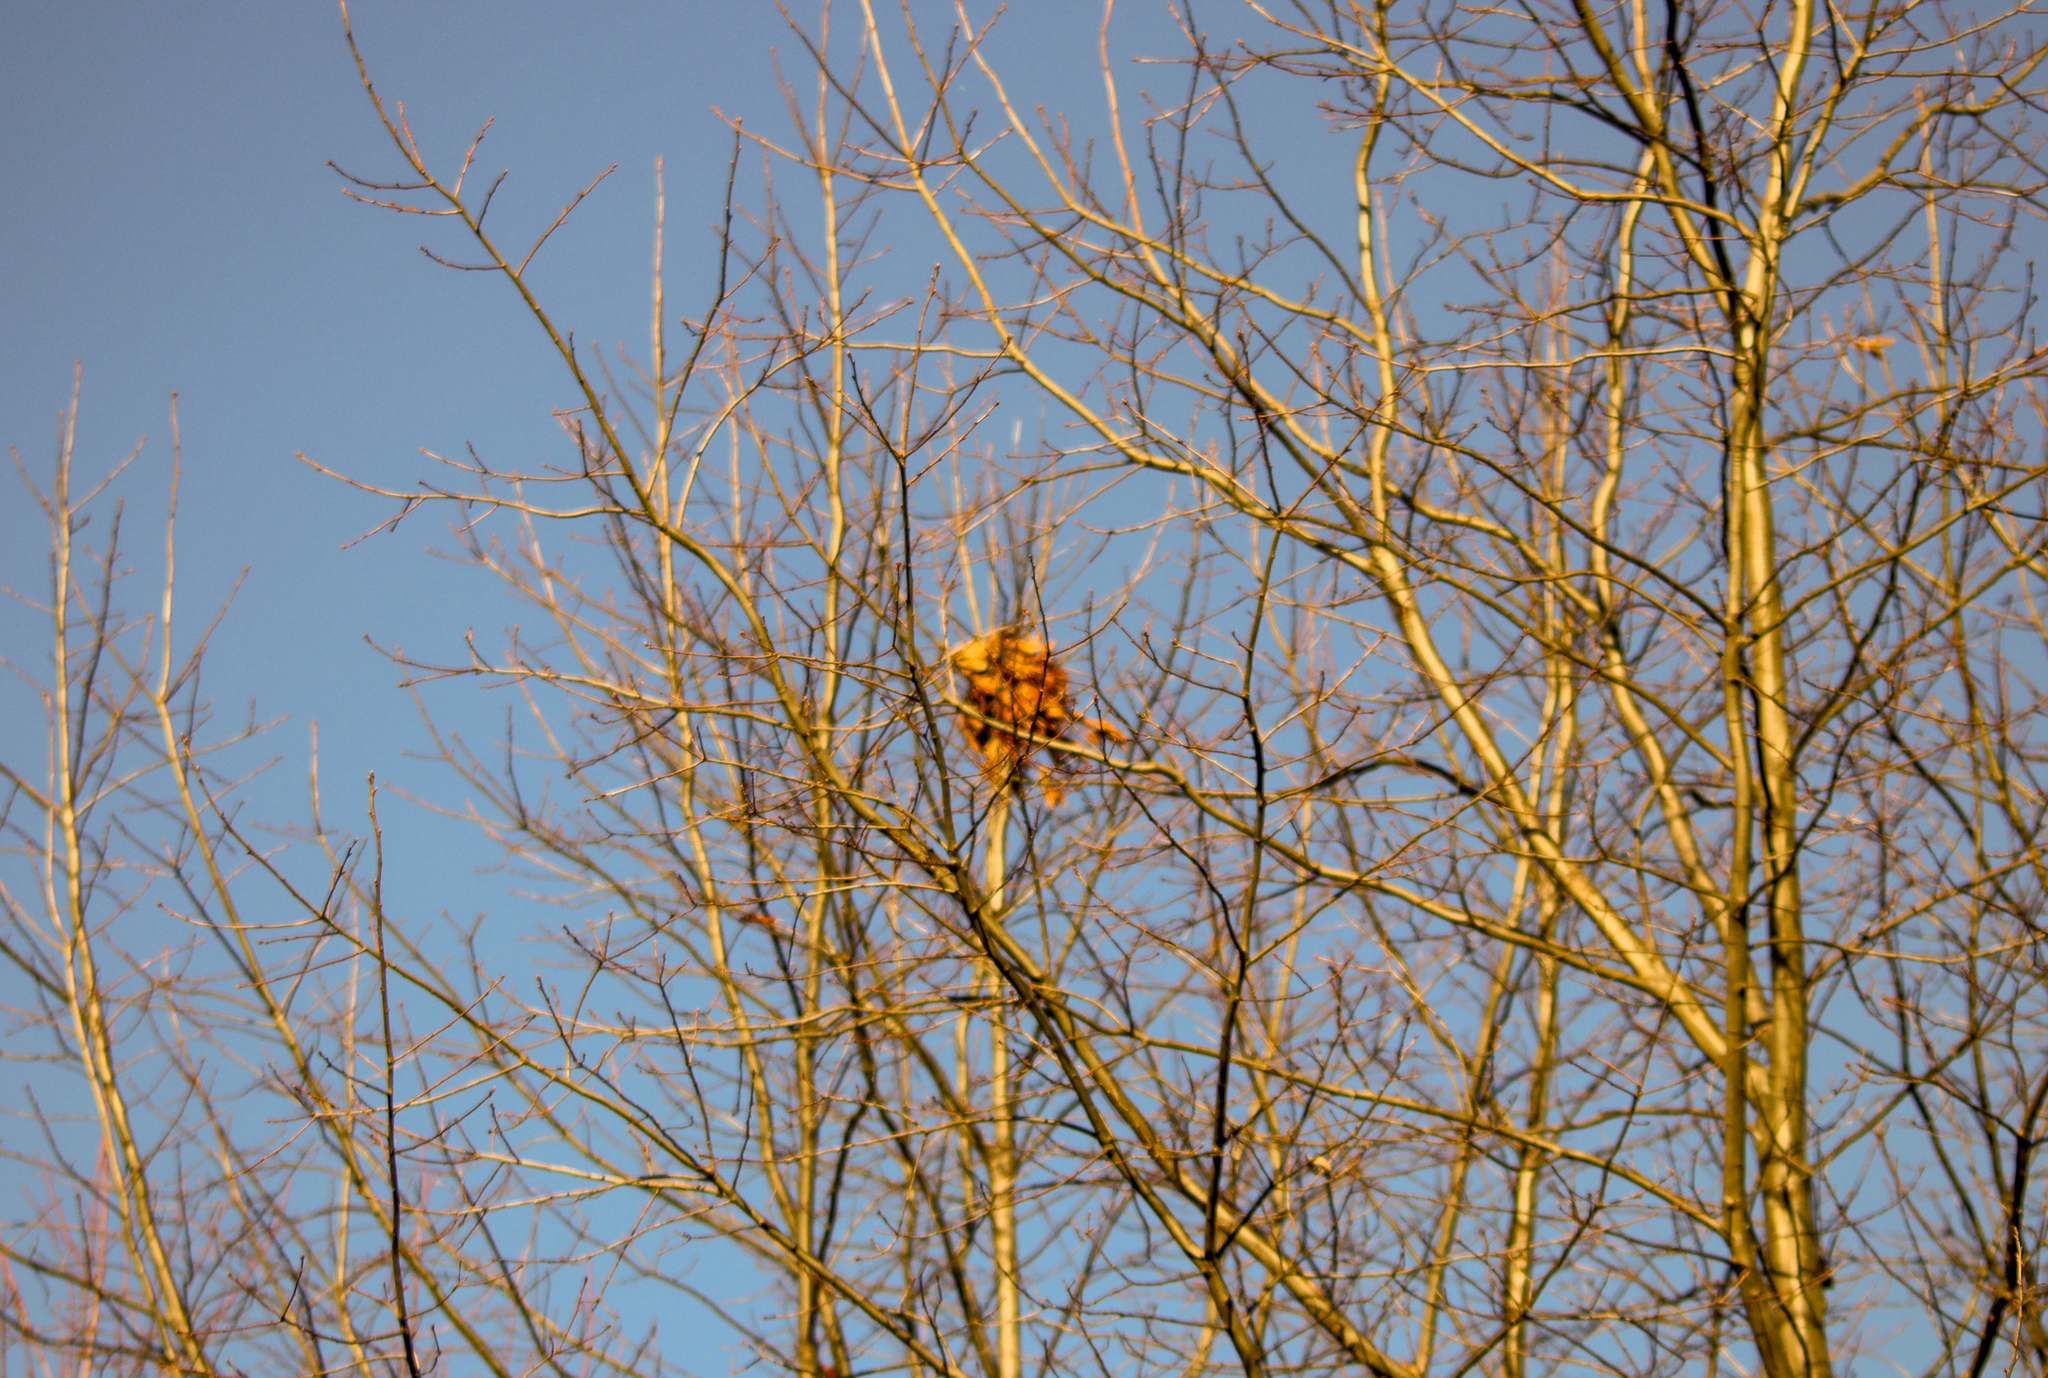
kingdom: Animalia
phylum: Chordata
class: Mammalia
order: Rodentia
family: Sciuridae
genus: Sciurus
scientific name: Sciurus carolinensis
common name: Eastern gray squirrel
